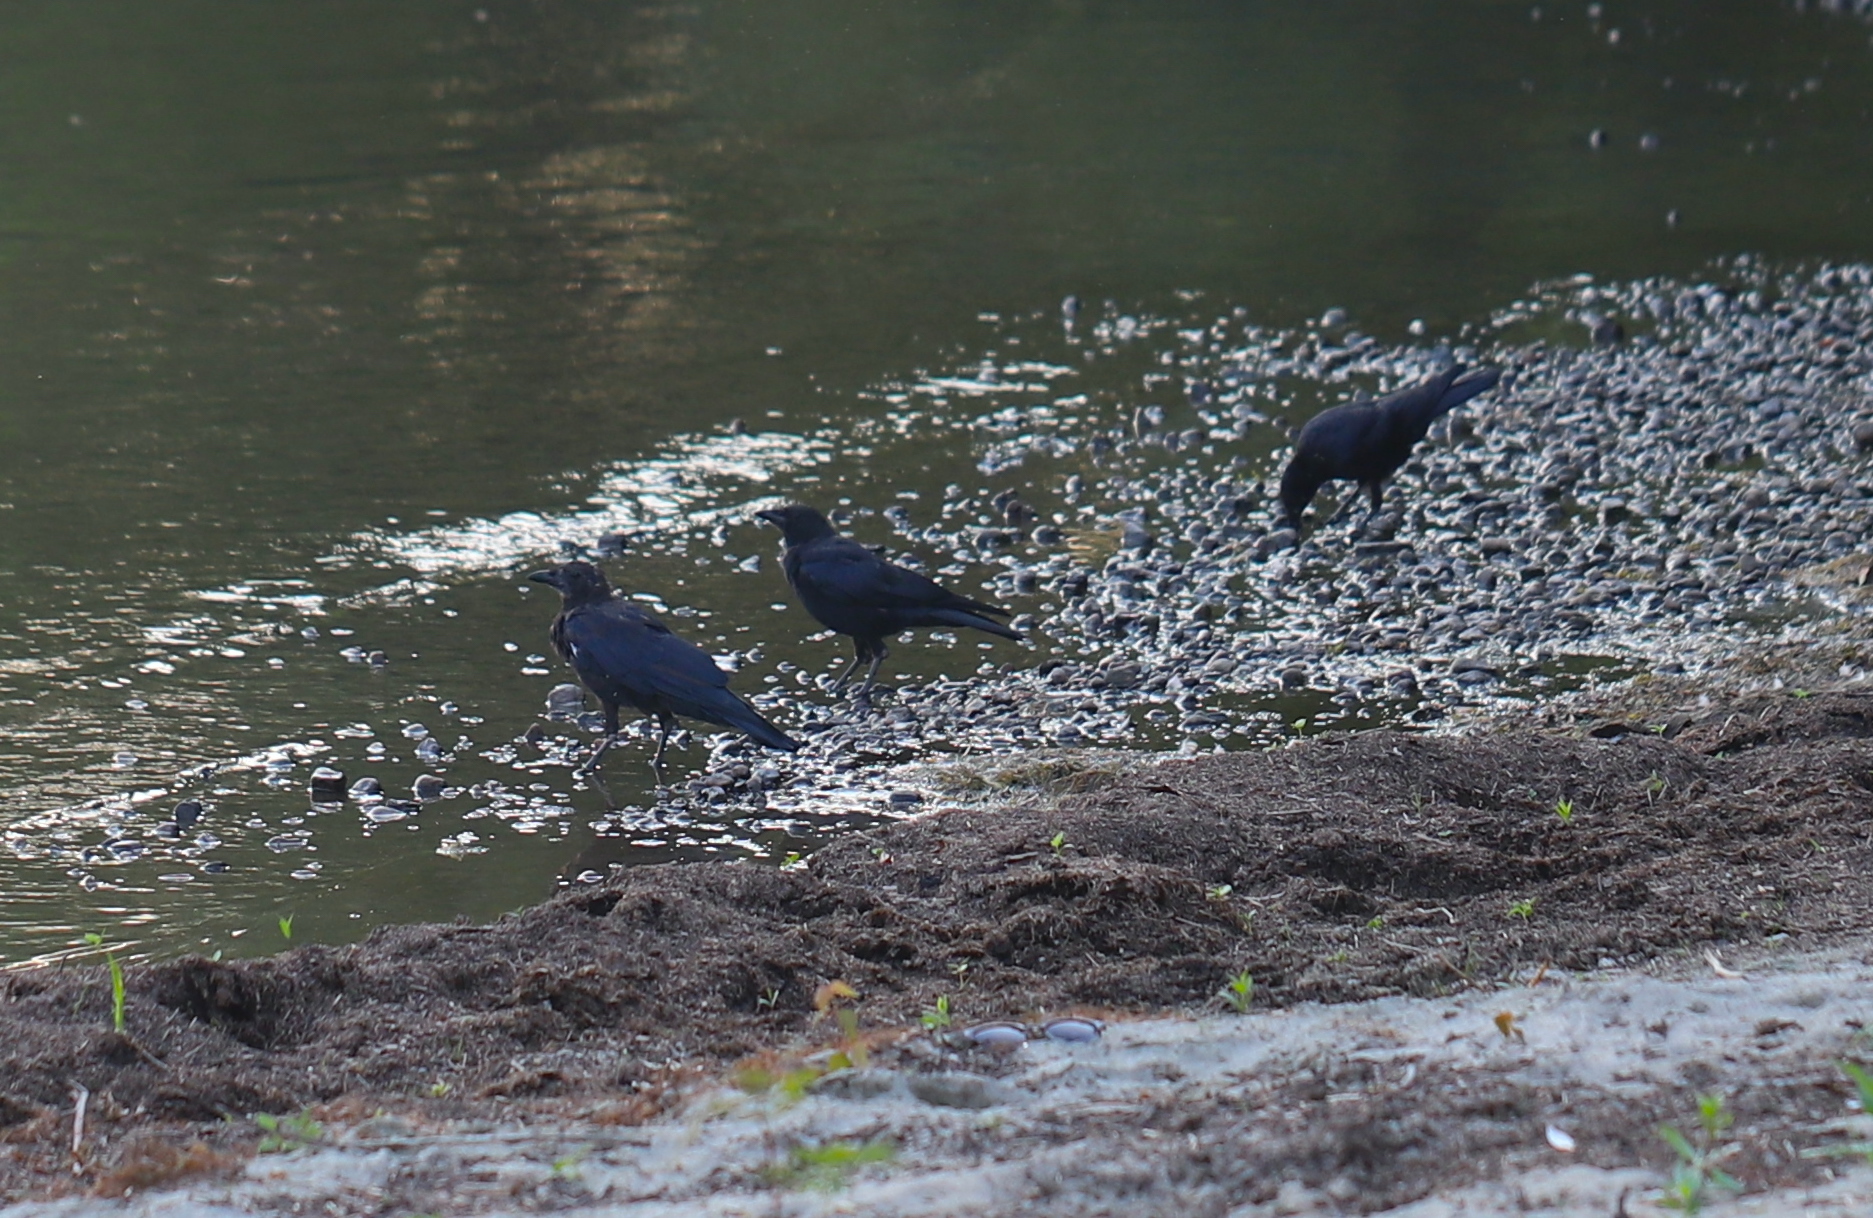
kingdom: Animalia
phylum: Chordata
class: Aves
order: Passeriformes
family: Corvidae
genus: Corvus
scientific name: Corvus brachyrhynchos
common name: American crow
